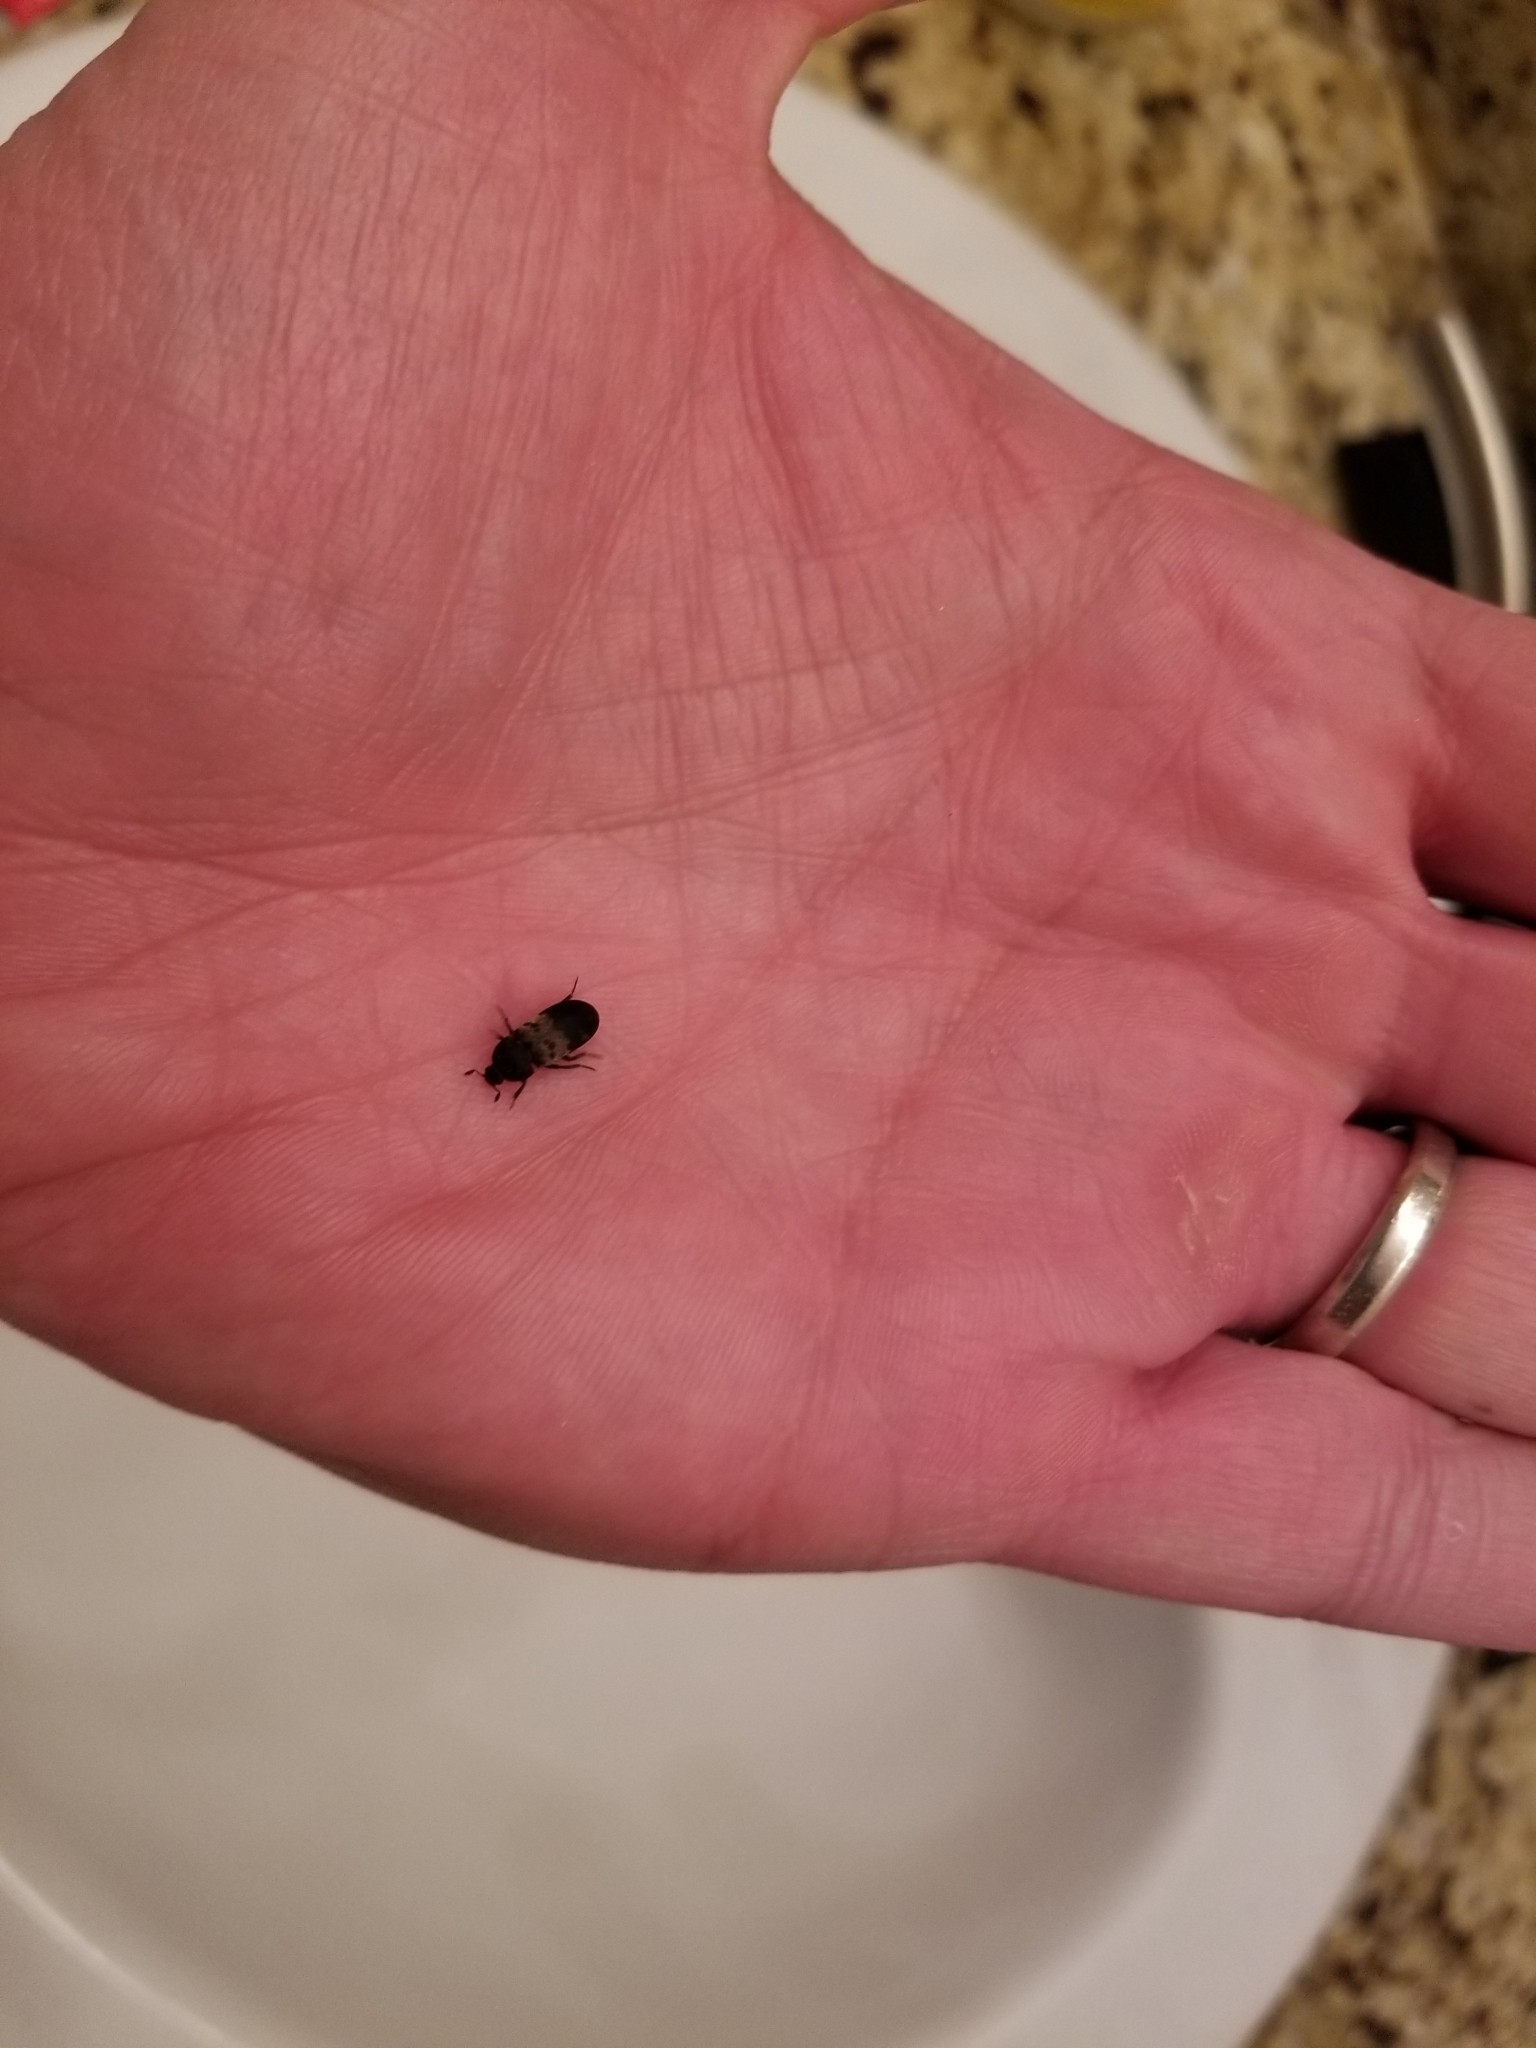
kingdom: Animalia
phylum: Arthropoda
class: Insecta
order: Coleoptera
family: Dermestidae
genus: Dermestes
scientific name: Dermestes lardarius
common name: Larder beetle
